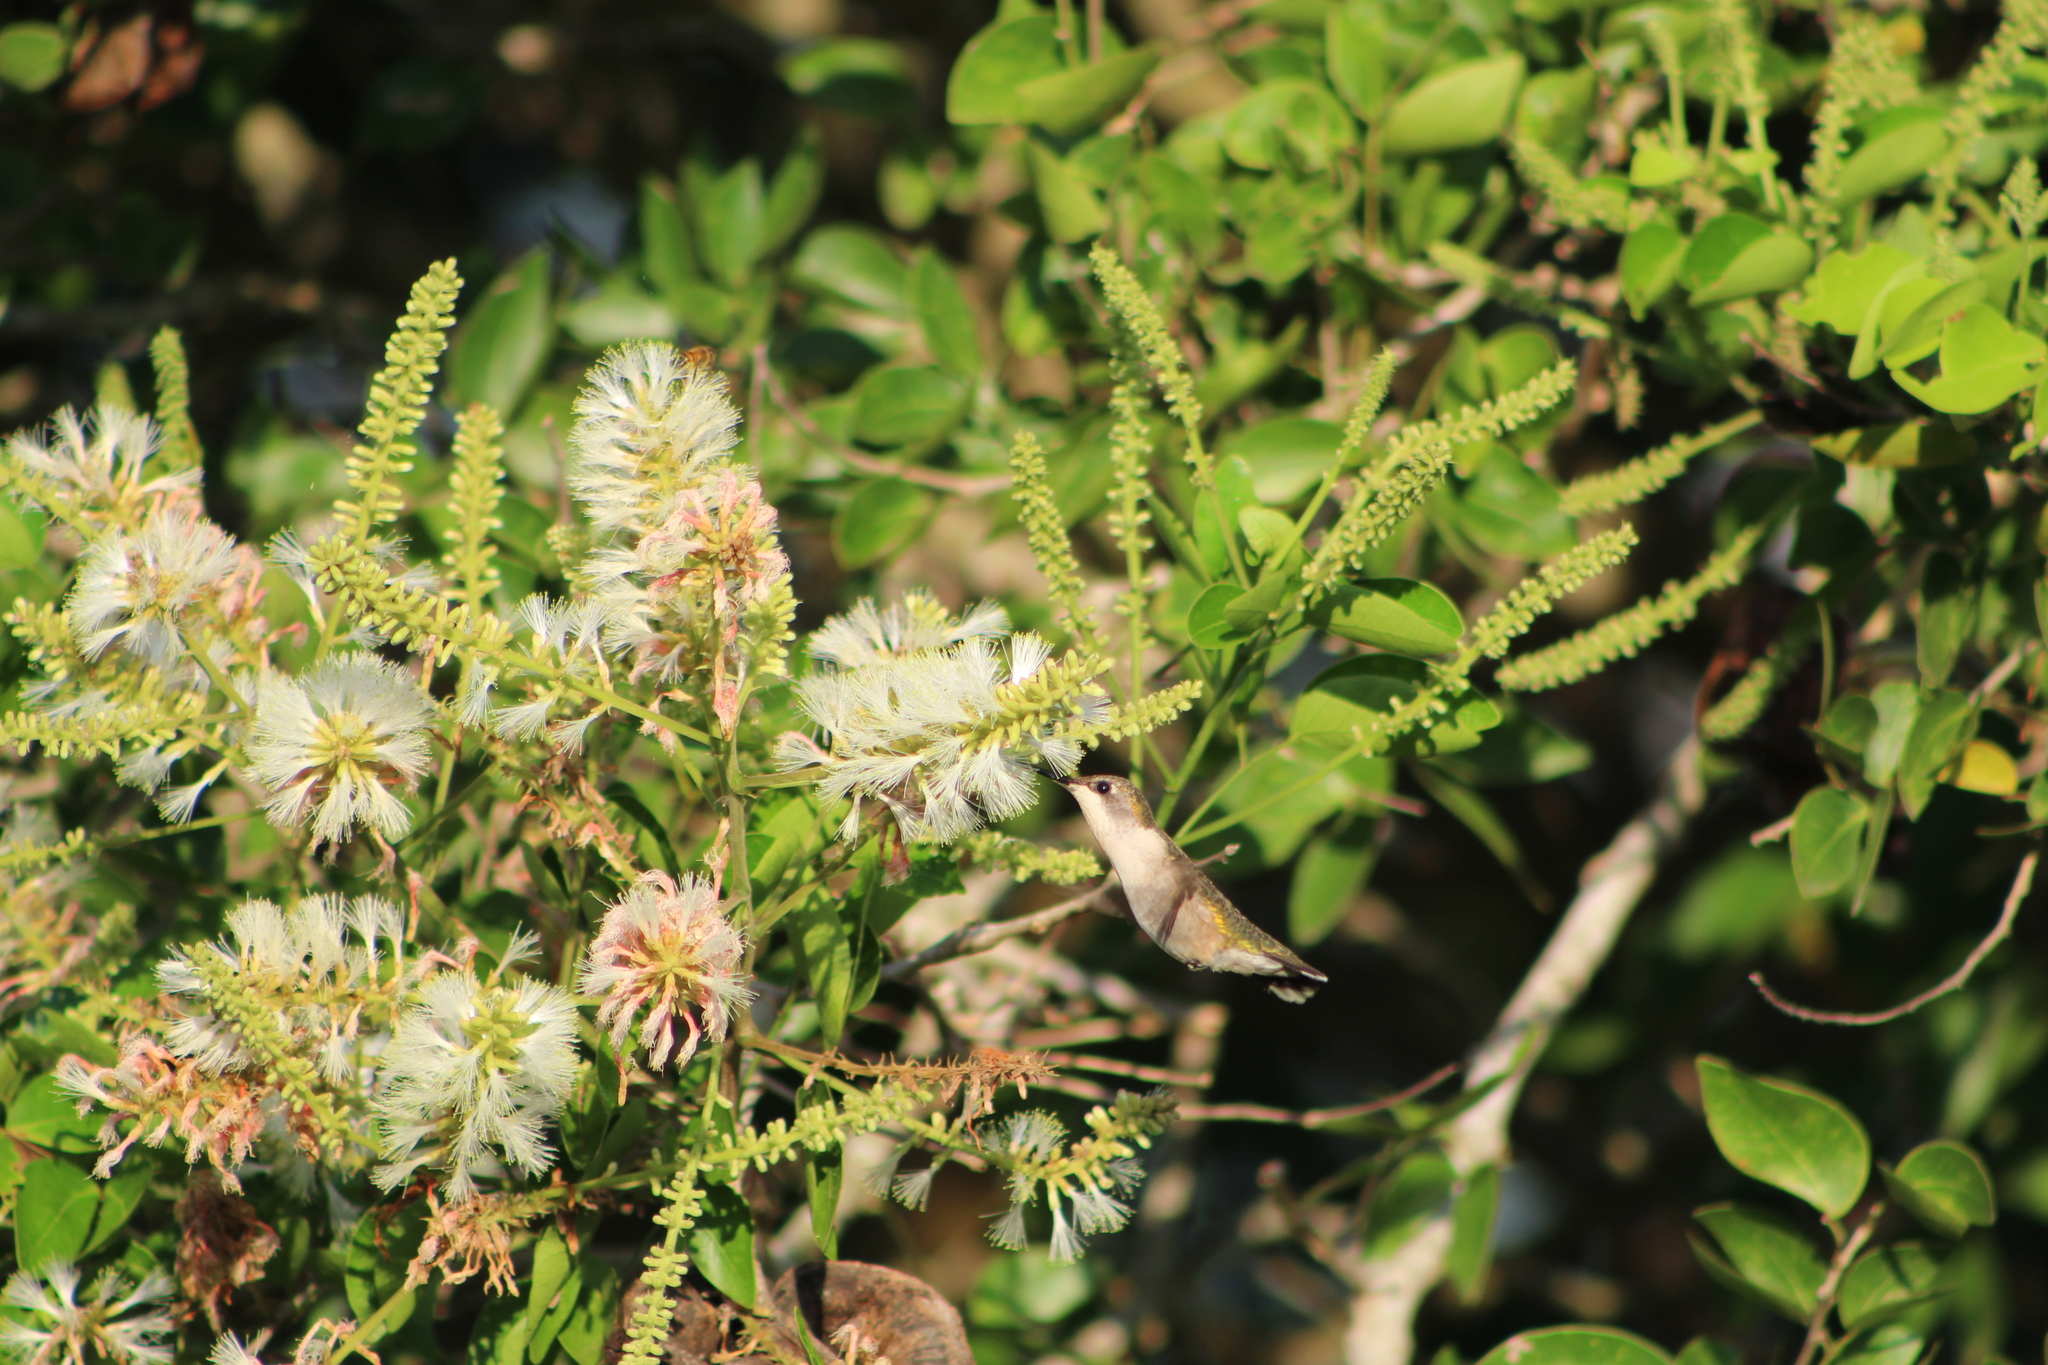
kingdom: Animalia
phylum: Chordata
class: Aves
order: Apodiformes
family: Trochilidae
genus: Archilochus
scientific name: Archilochus colubris
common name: Ruby-throated hummingbird
